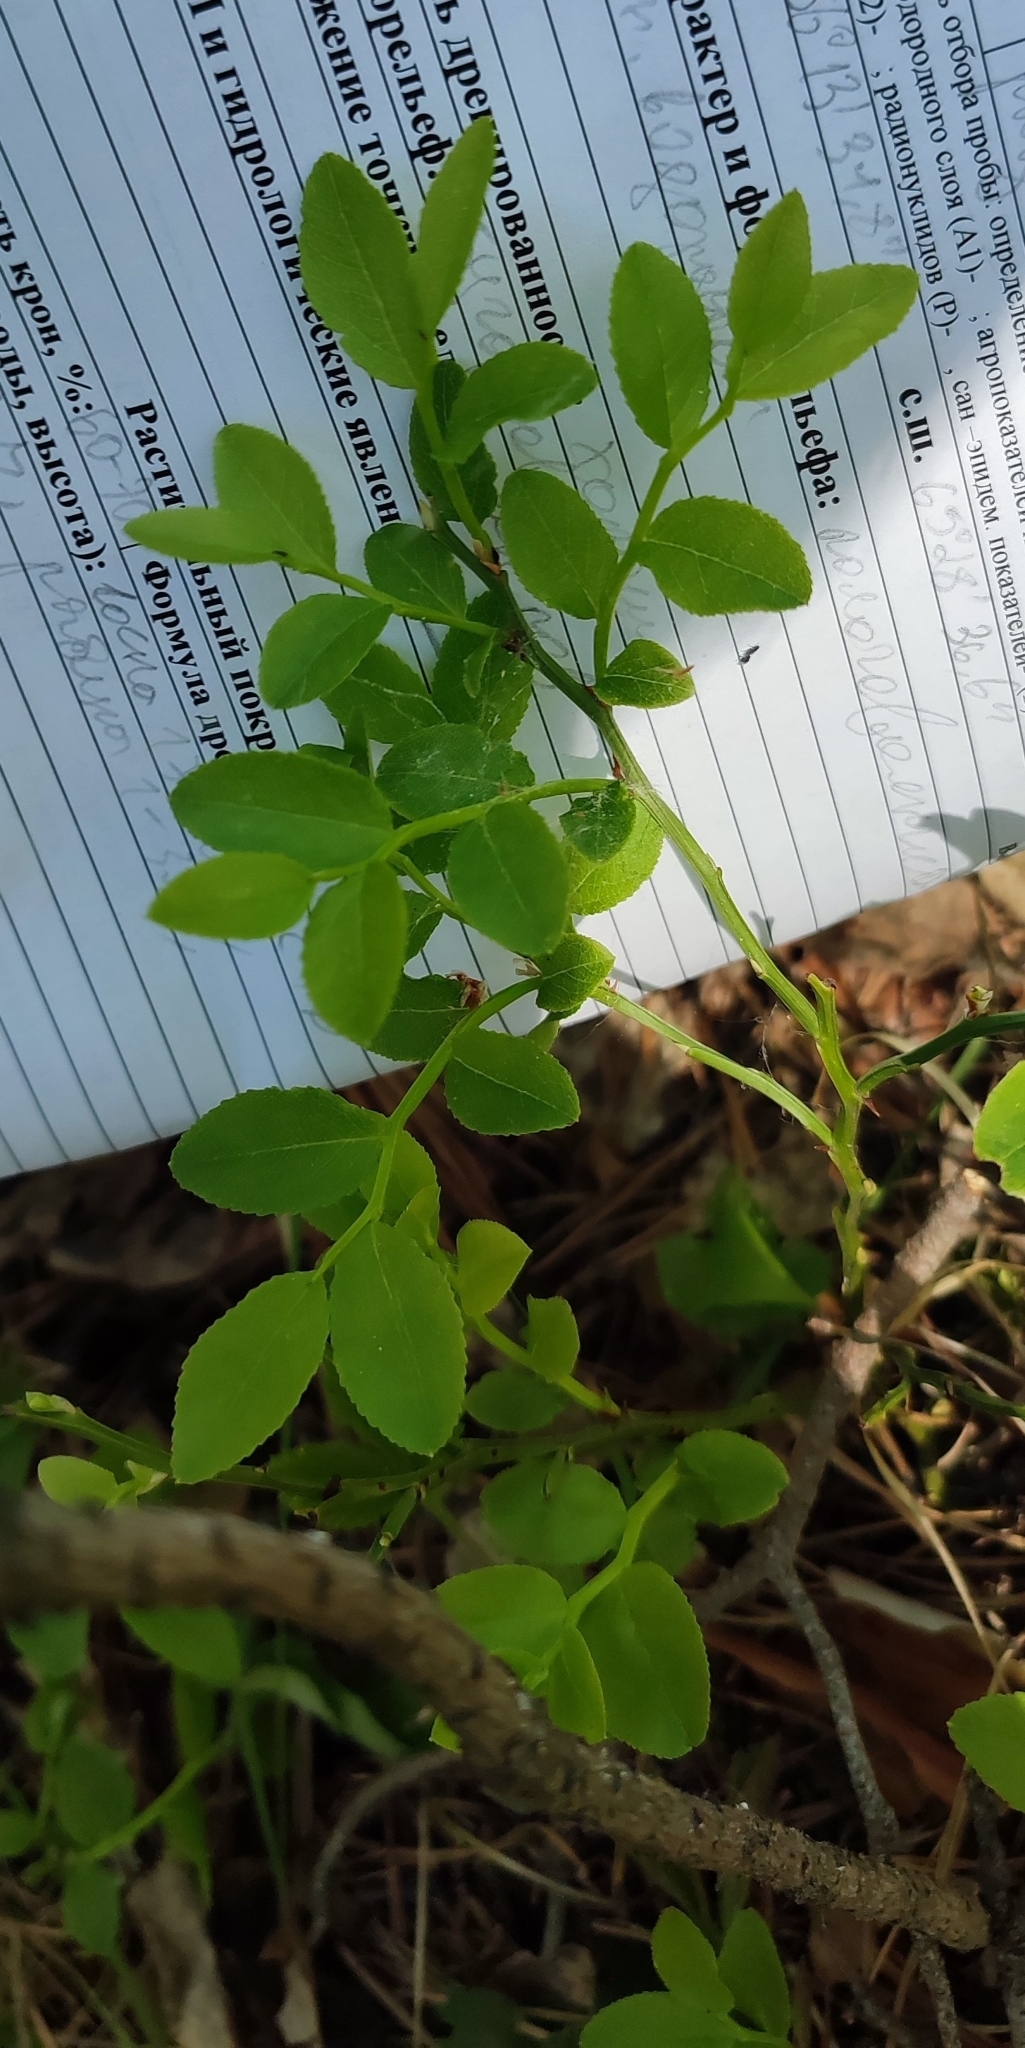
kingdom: Plantae
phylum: Tracheophyta
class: Magnoliopsida
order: Ericales
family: Ericaceae
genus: Vaccinium
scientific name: Vaccinium myrtillus
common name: Bilberry
